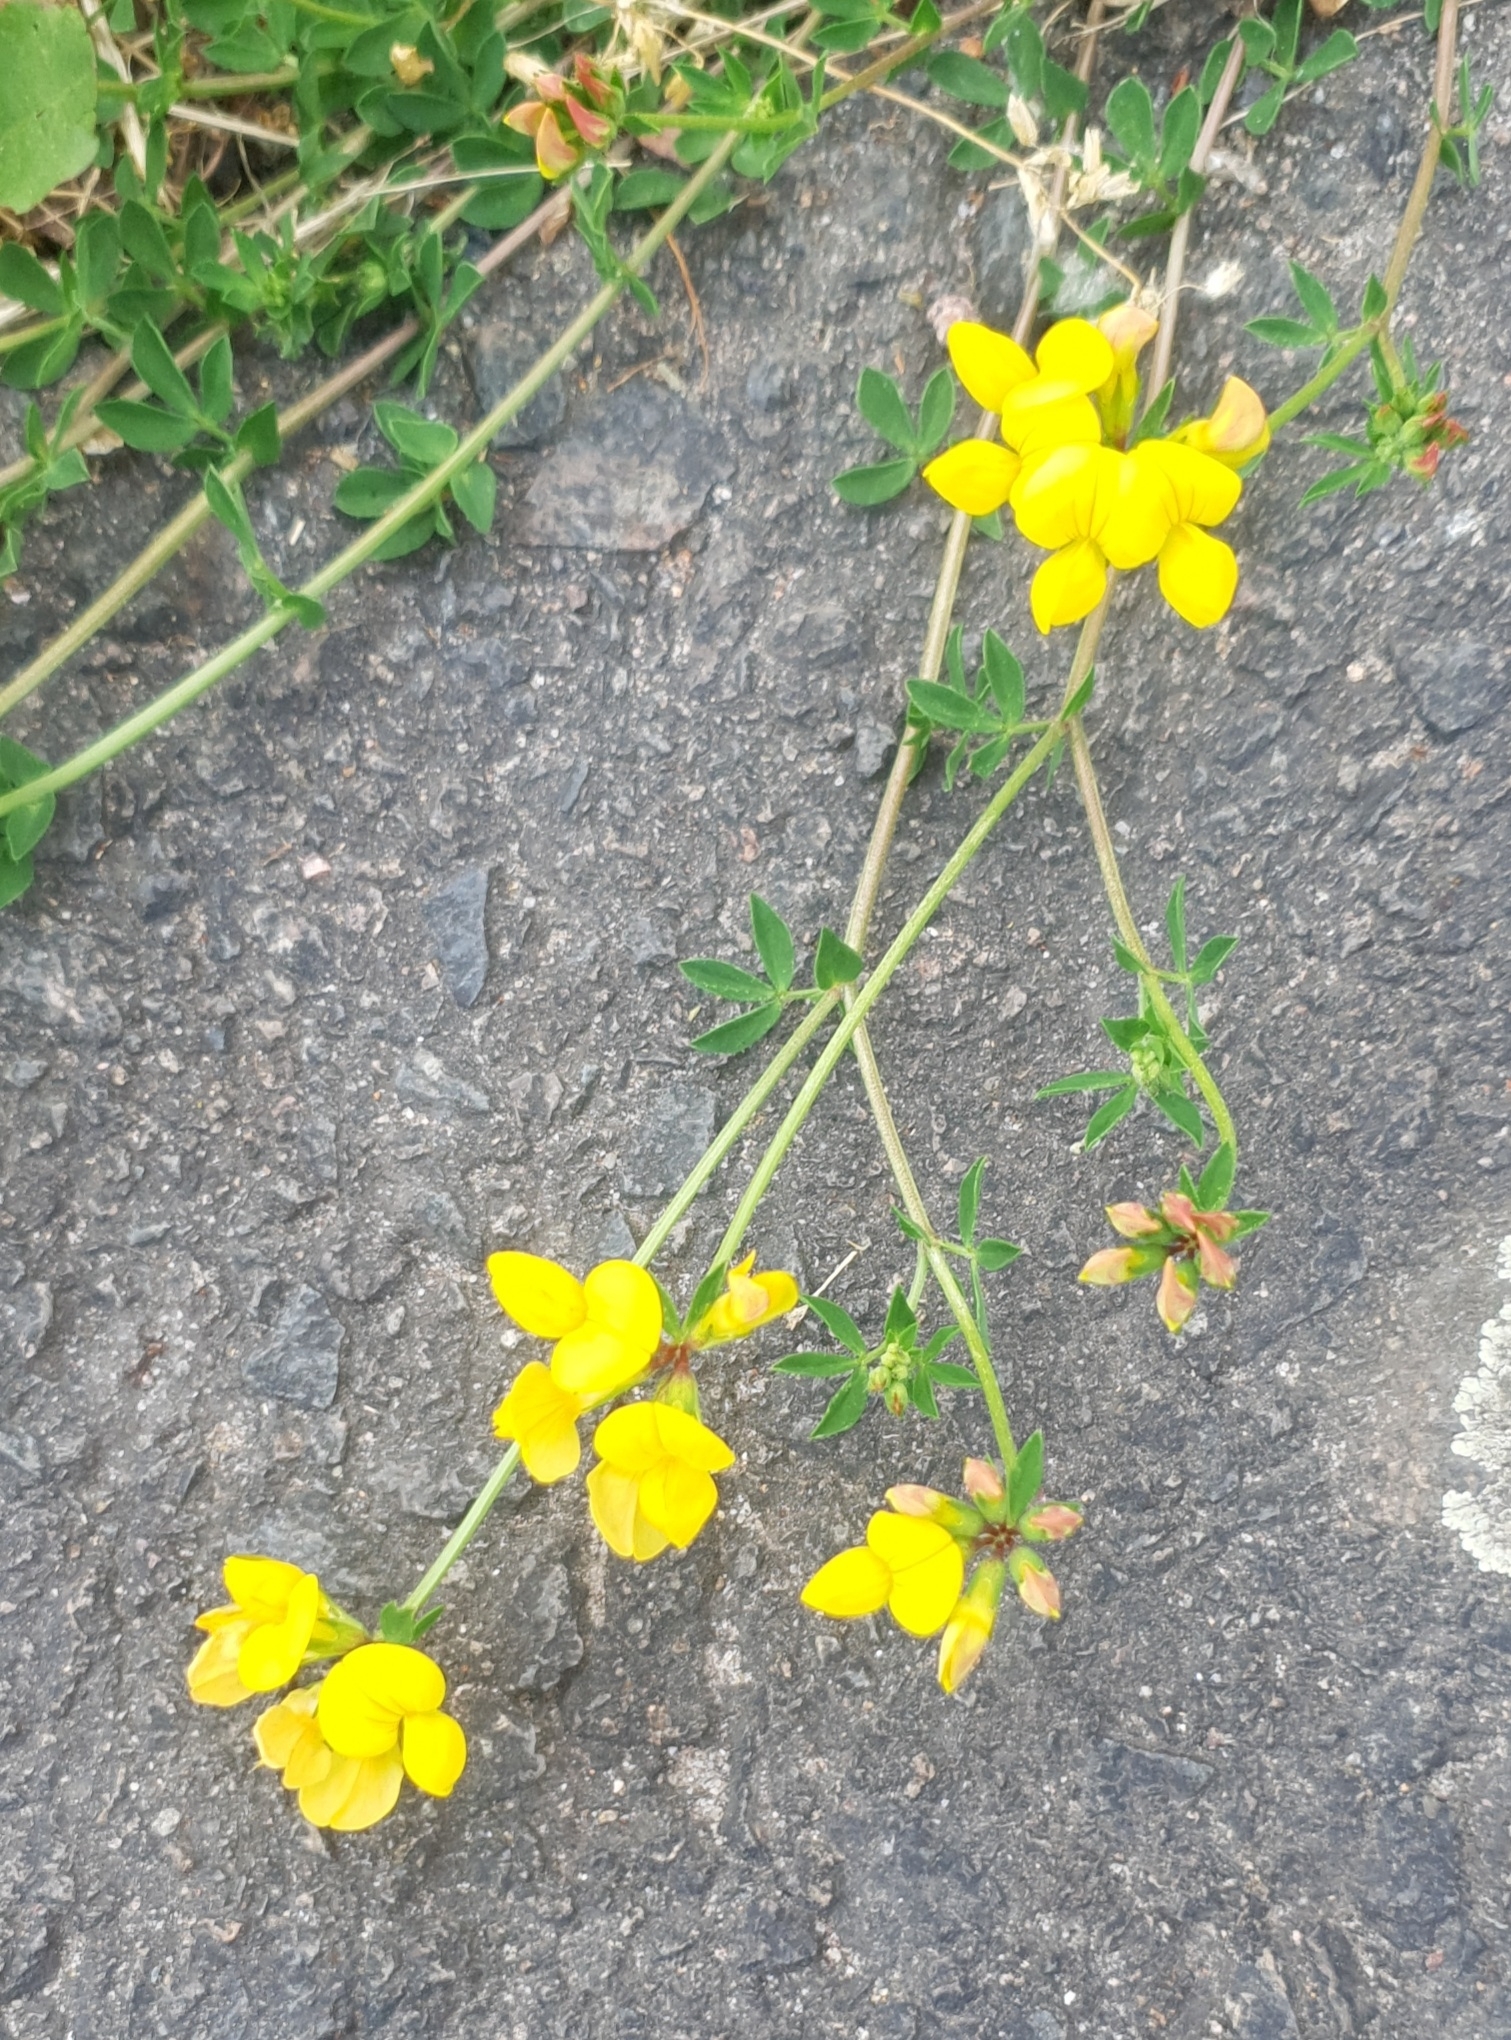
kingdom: Plantae
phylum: Tracheophyta
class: Magnoliopsida
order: Fabales
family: Fabaceae
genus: Lotus
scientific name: Lotus corniculatus
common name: Common bird's-foot-trefoil
